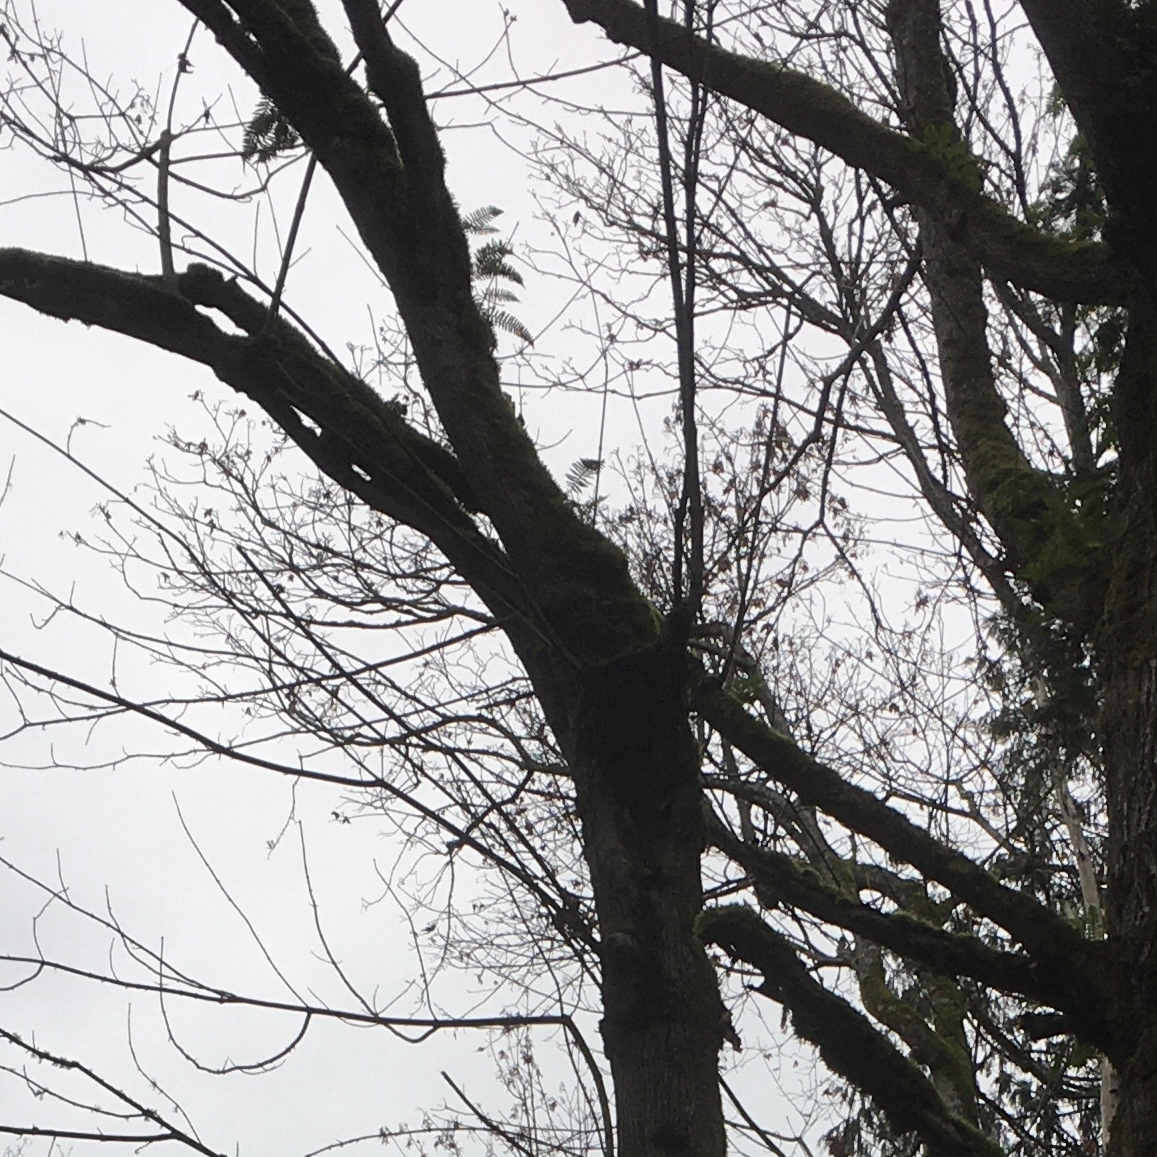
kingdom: Plantae
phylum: Tracheophyta
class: Polypodiopsida
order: Polypodiales
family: Polypodiaceae
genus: Polypodium
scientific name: Polypodium glycyrrhiza
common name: Licorice fern
